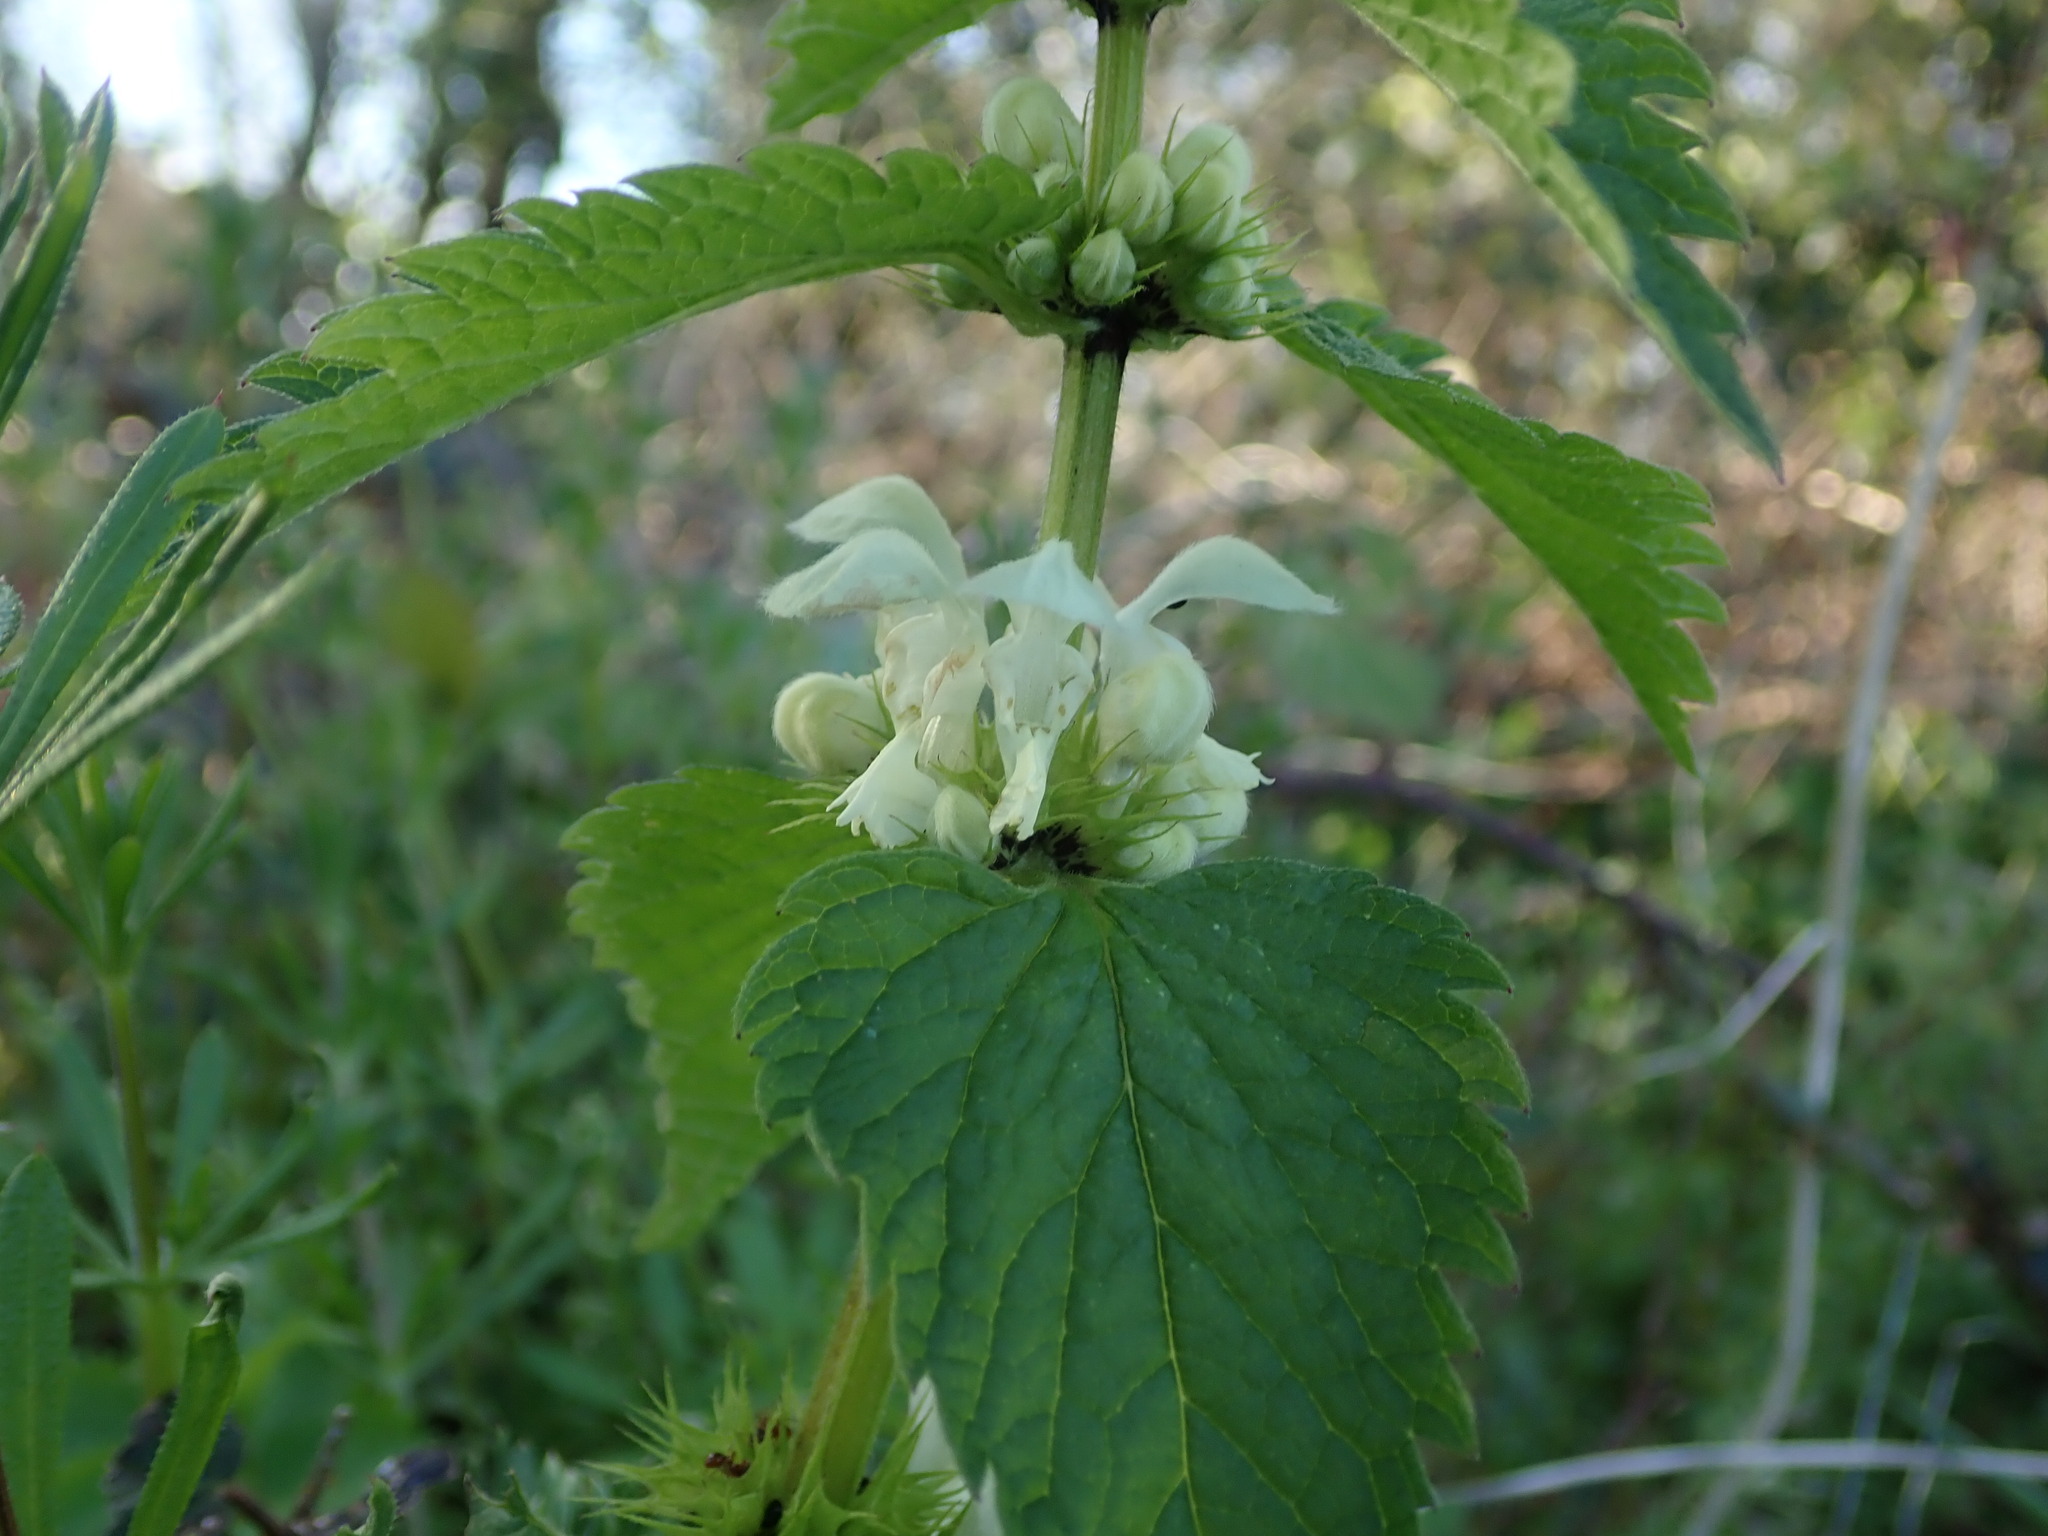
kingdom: Plantae
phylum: Tracheophyta
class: Magnoliopsida
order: Lamiales
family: Lamiaceae
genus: Lamium
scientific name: Lamium album
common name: White dead-nettle
